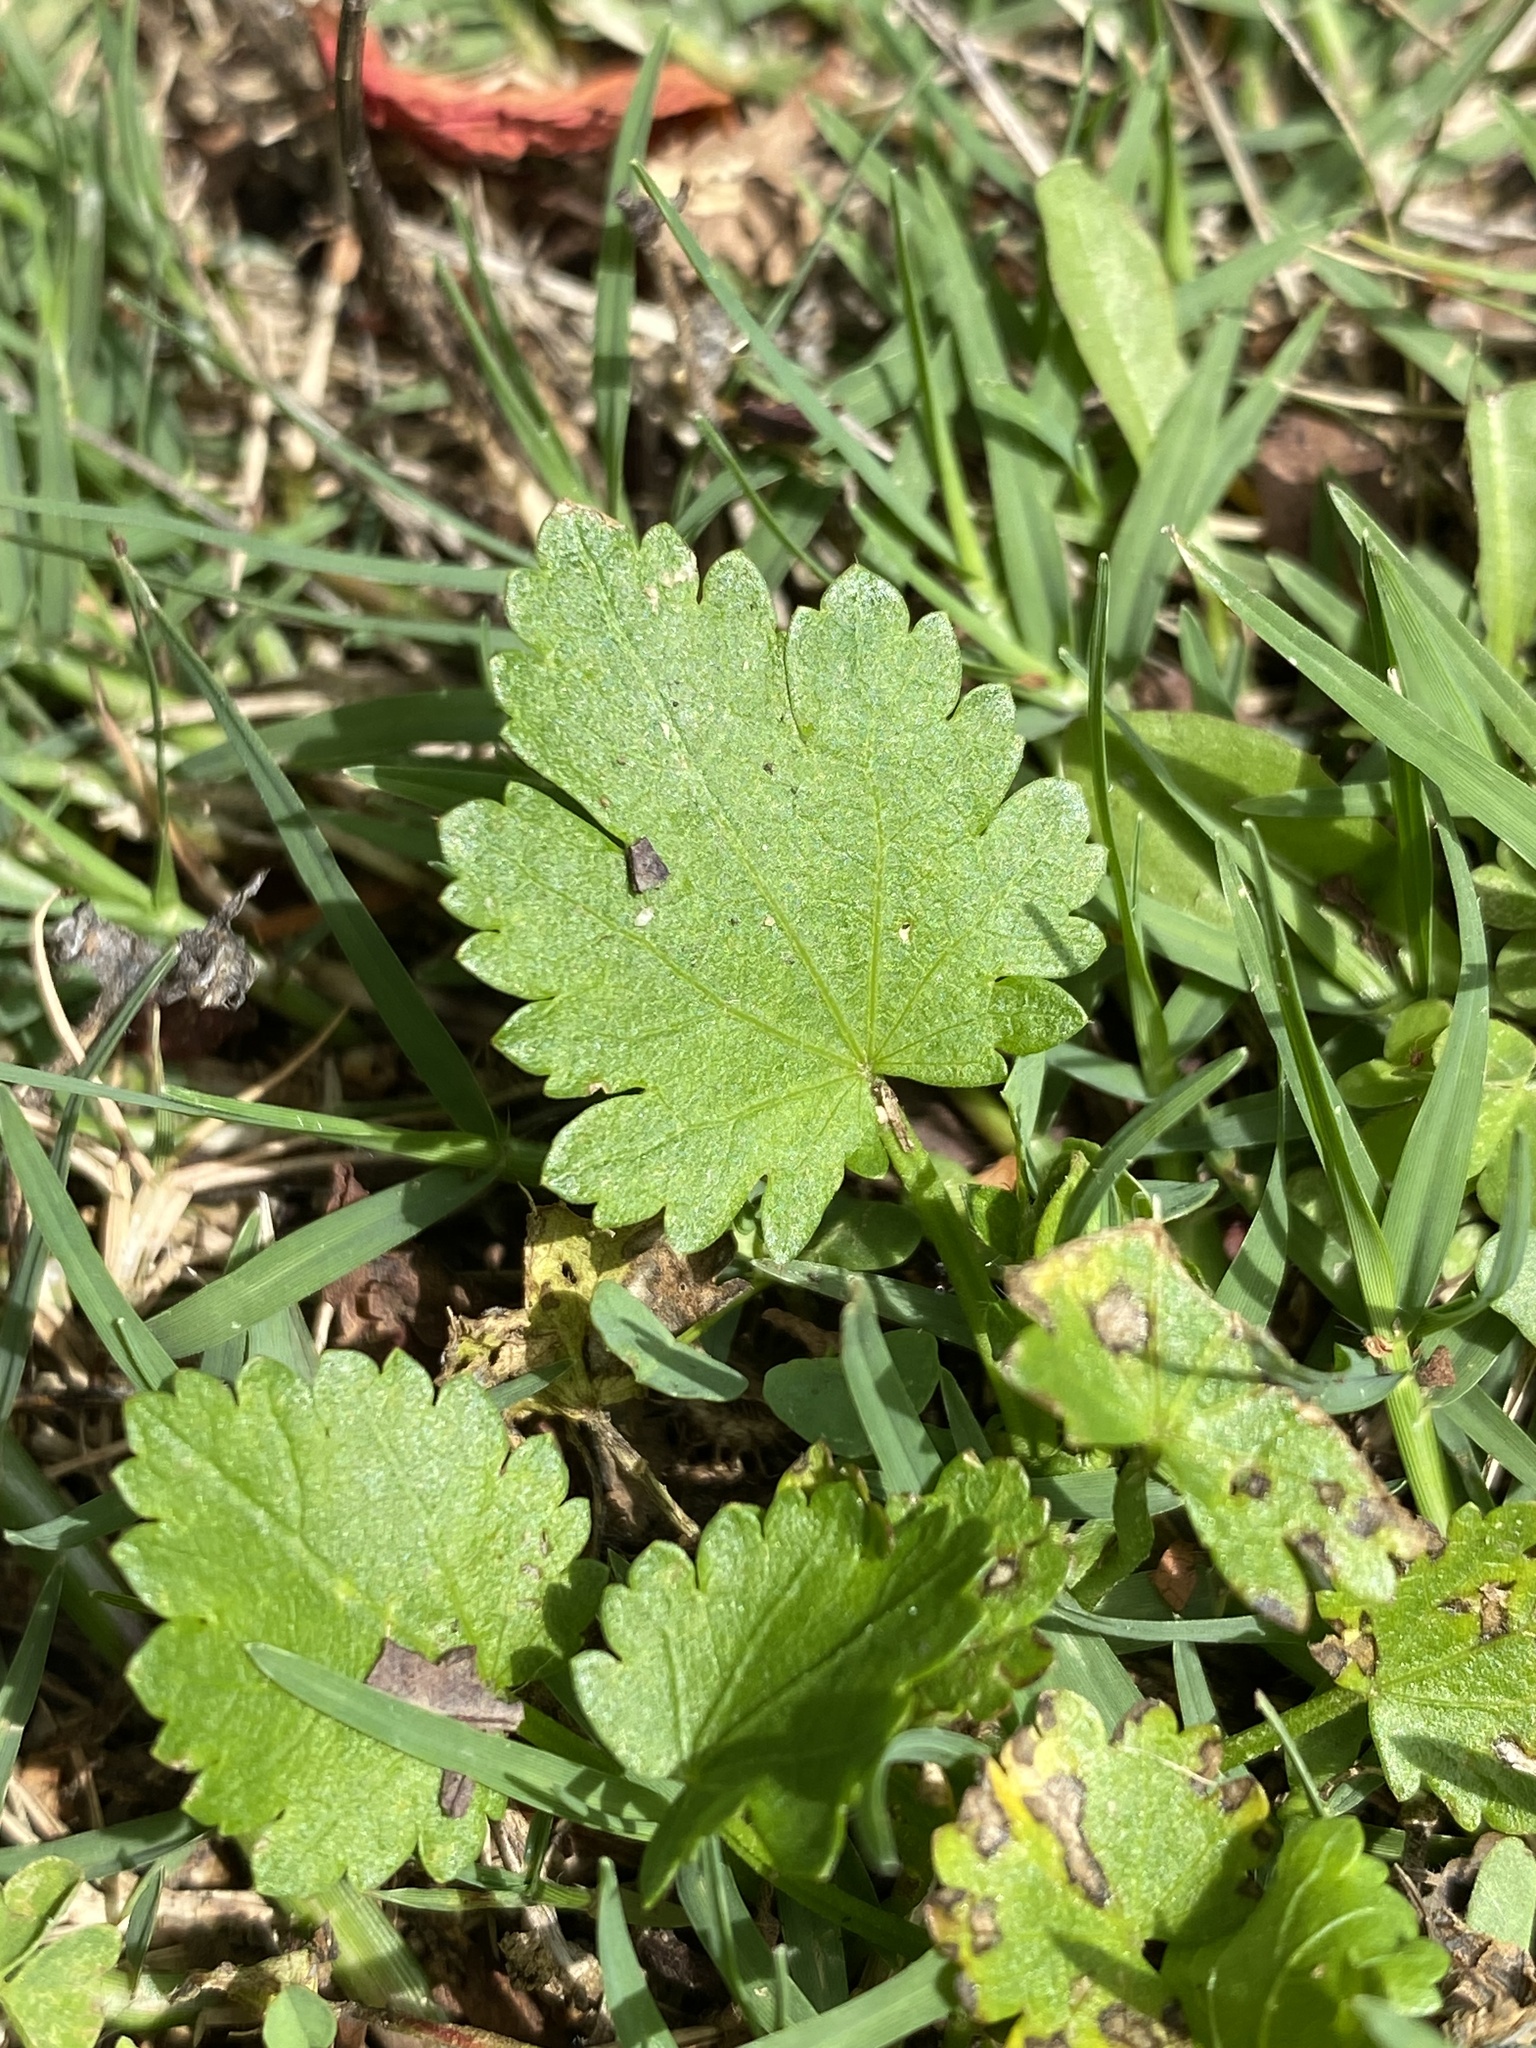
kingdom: Plantae
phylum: Tracheophyta
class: Magnoliopsida
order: Malvales
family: Malvaceae
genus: Modiola
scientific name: Modiola caroliniana
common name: Carolina bristlemallow
